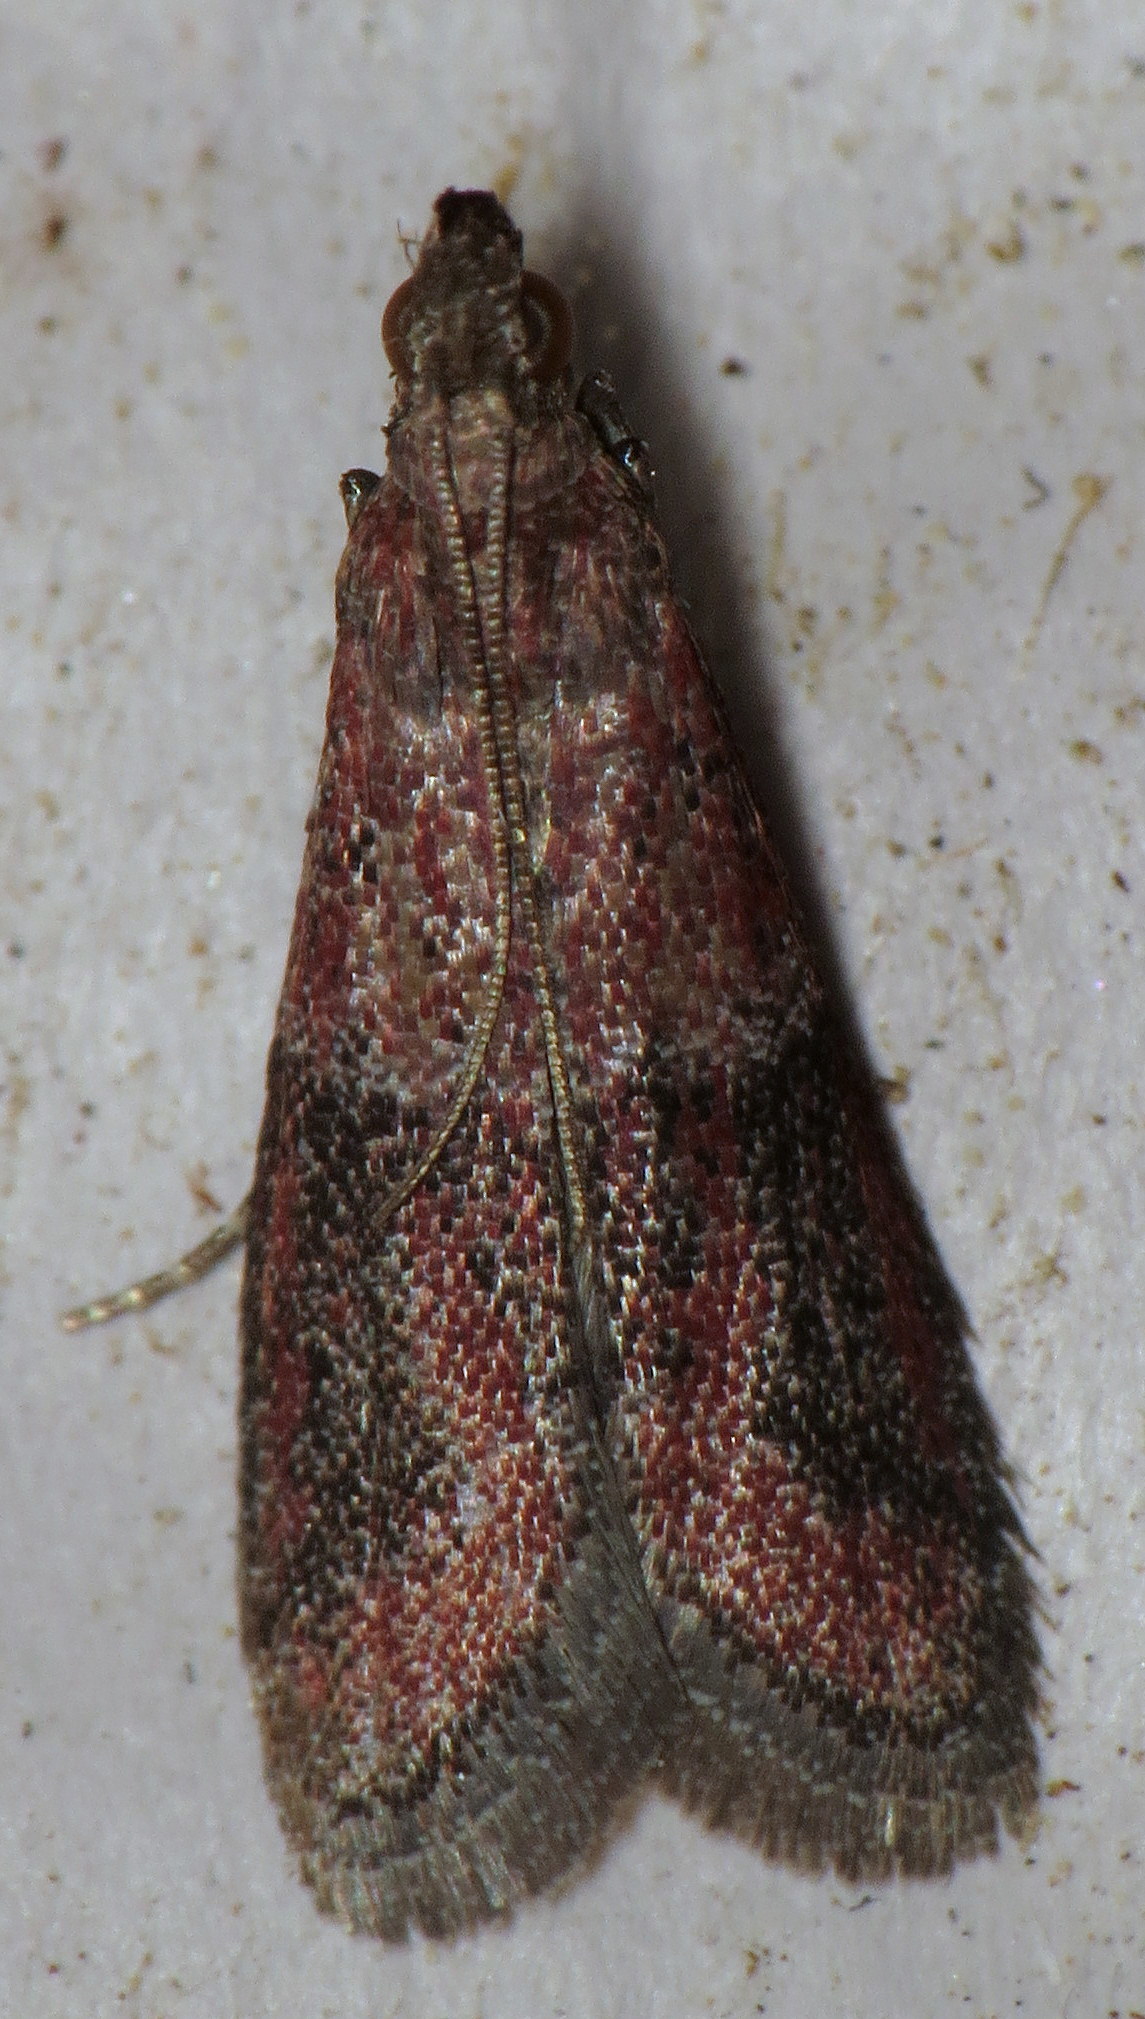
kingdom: Animalia
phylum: Arthropoda
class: Insecta
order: Lepidoptera
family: Pyralidae
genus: Ephestiodes
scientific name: Ephestiodes infimella
